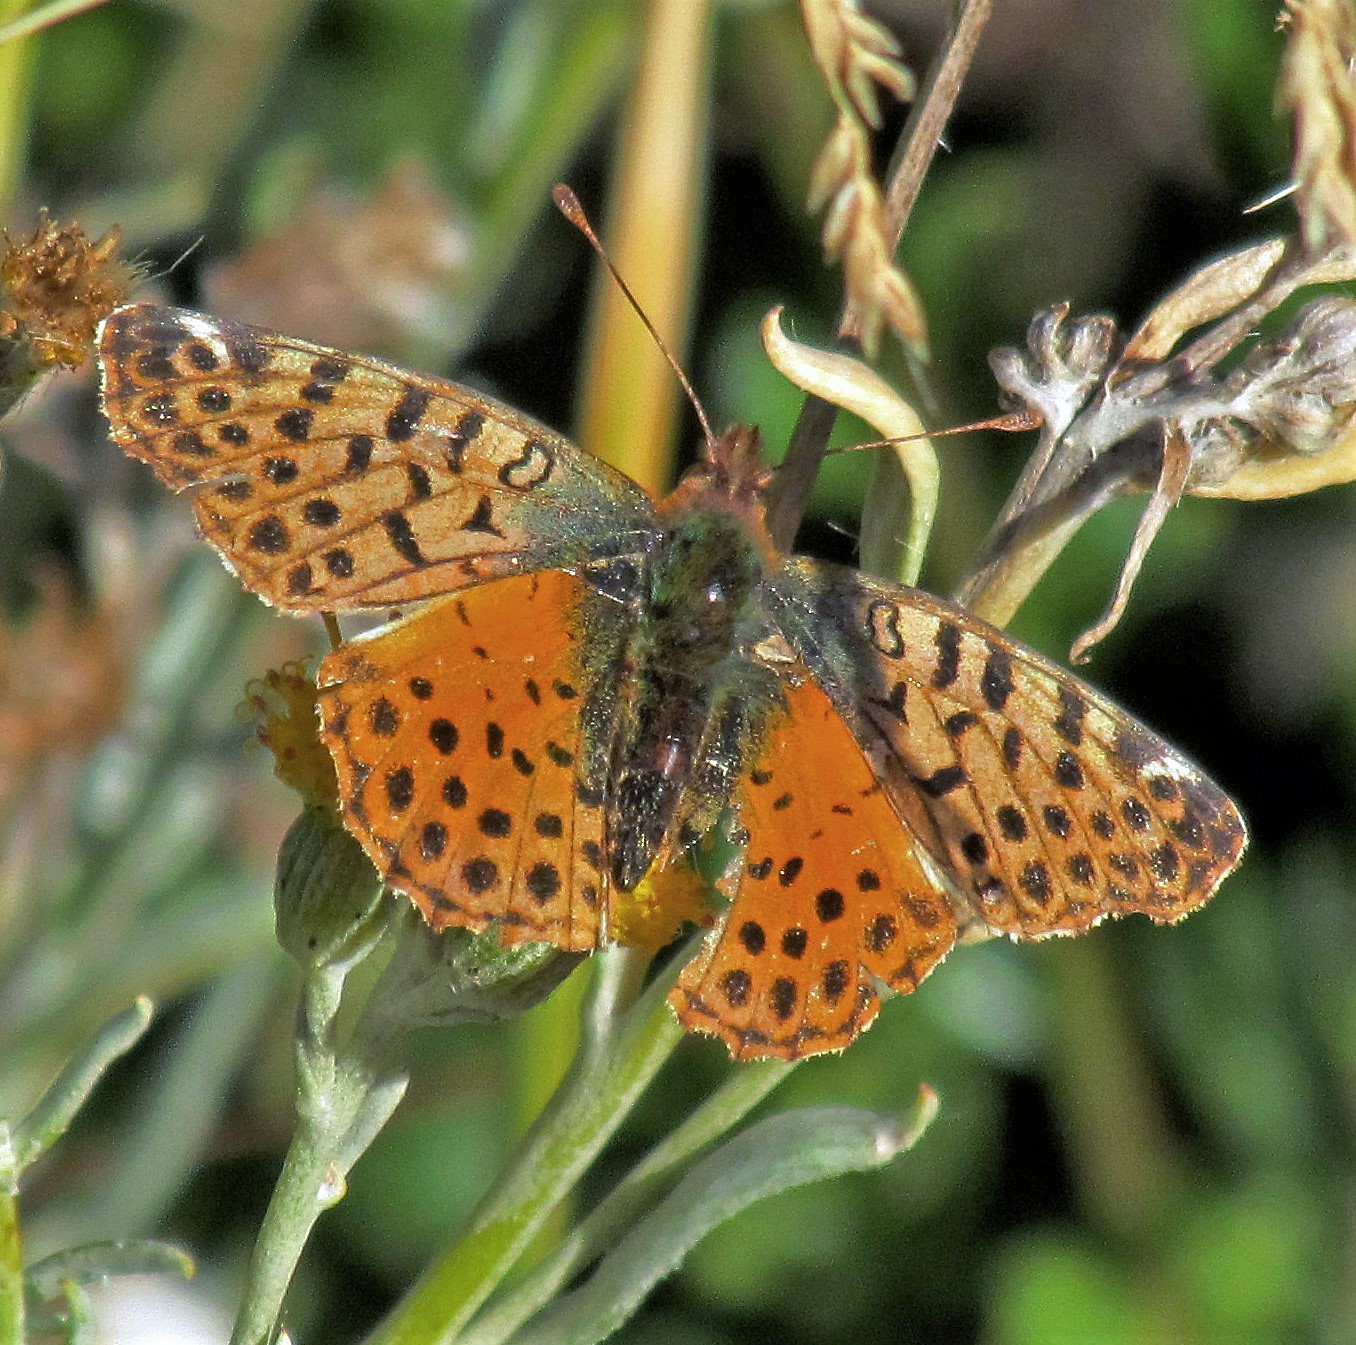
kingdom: Animalia
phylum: Arthropoda
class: Insecta
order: Lepidoptera
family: Nymphalidae
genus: Issoria
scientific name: Issoria Yramea cytheris
